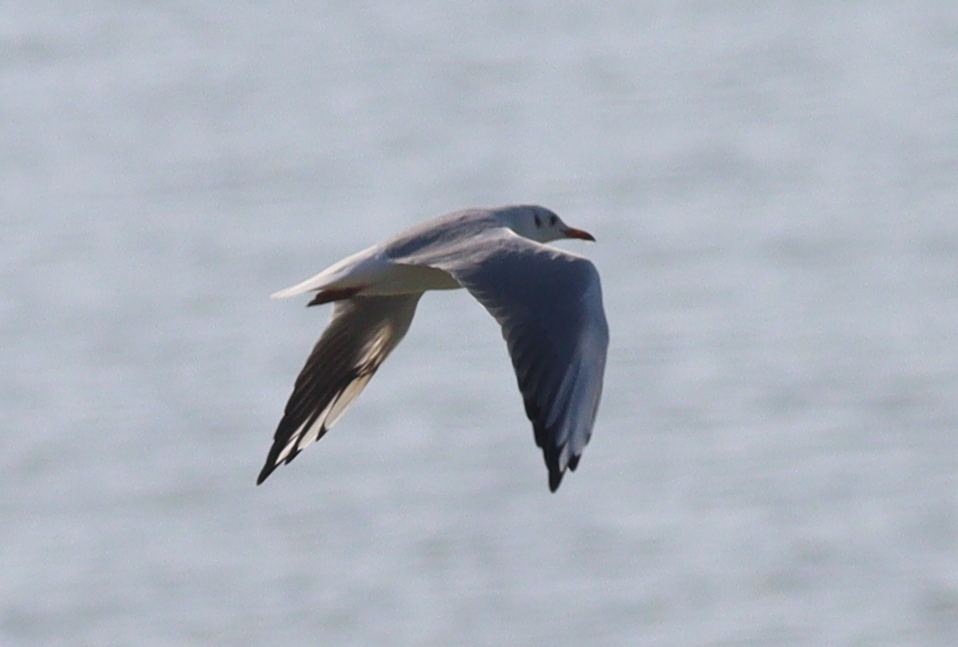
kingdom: Animalia
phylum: Chordata
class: Aves
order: Charadriiformes
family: Laridae
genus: Chroicocephalus
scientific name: Chroicocephalus ridibundus
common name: Black-headed gull
